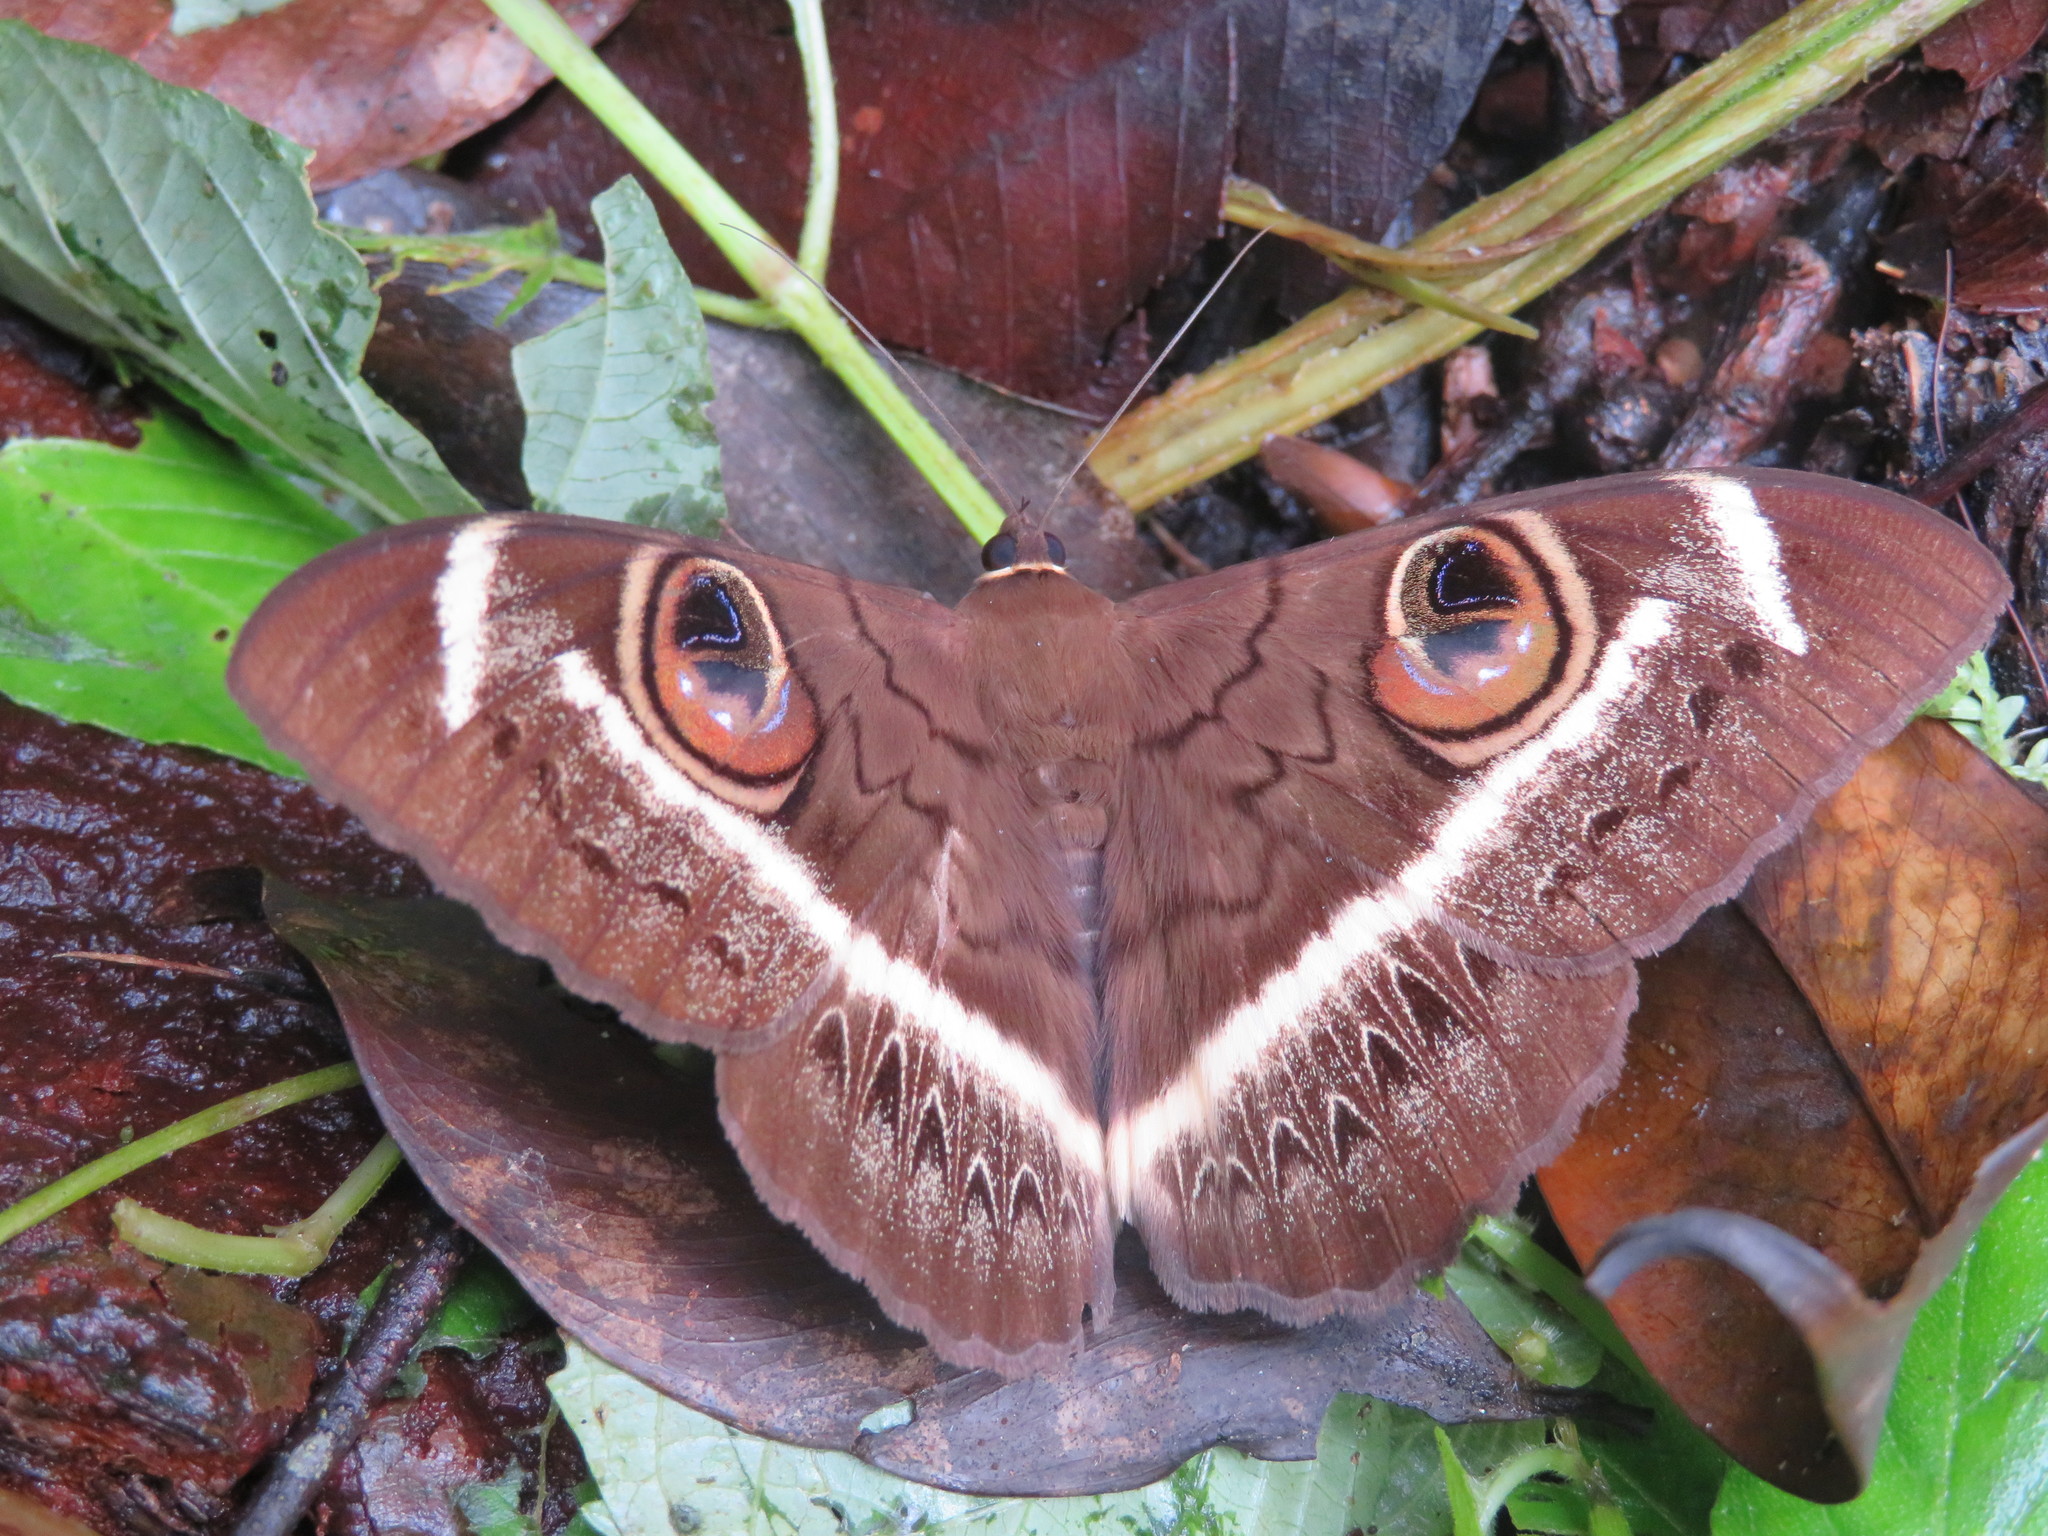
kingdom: Animalia
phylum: Arthropoda
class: Insecta
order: Lepidoptera
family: Erebidae
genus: Cyligramma
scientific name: Cyligramma latona
